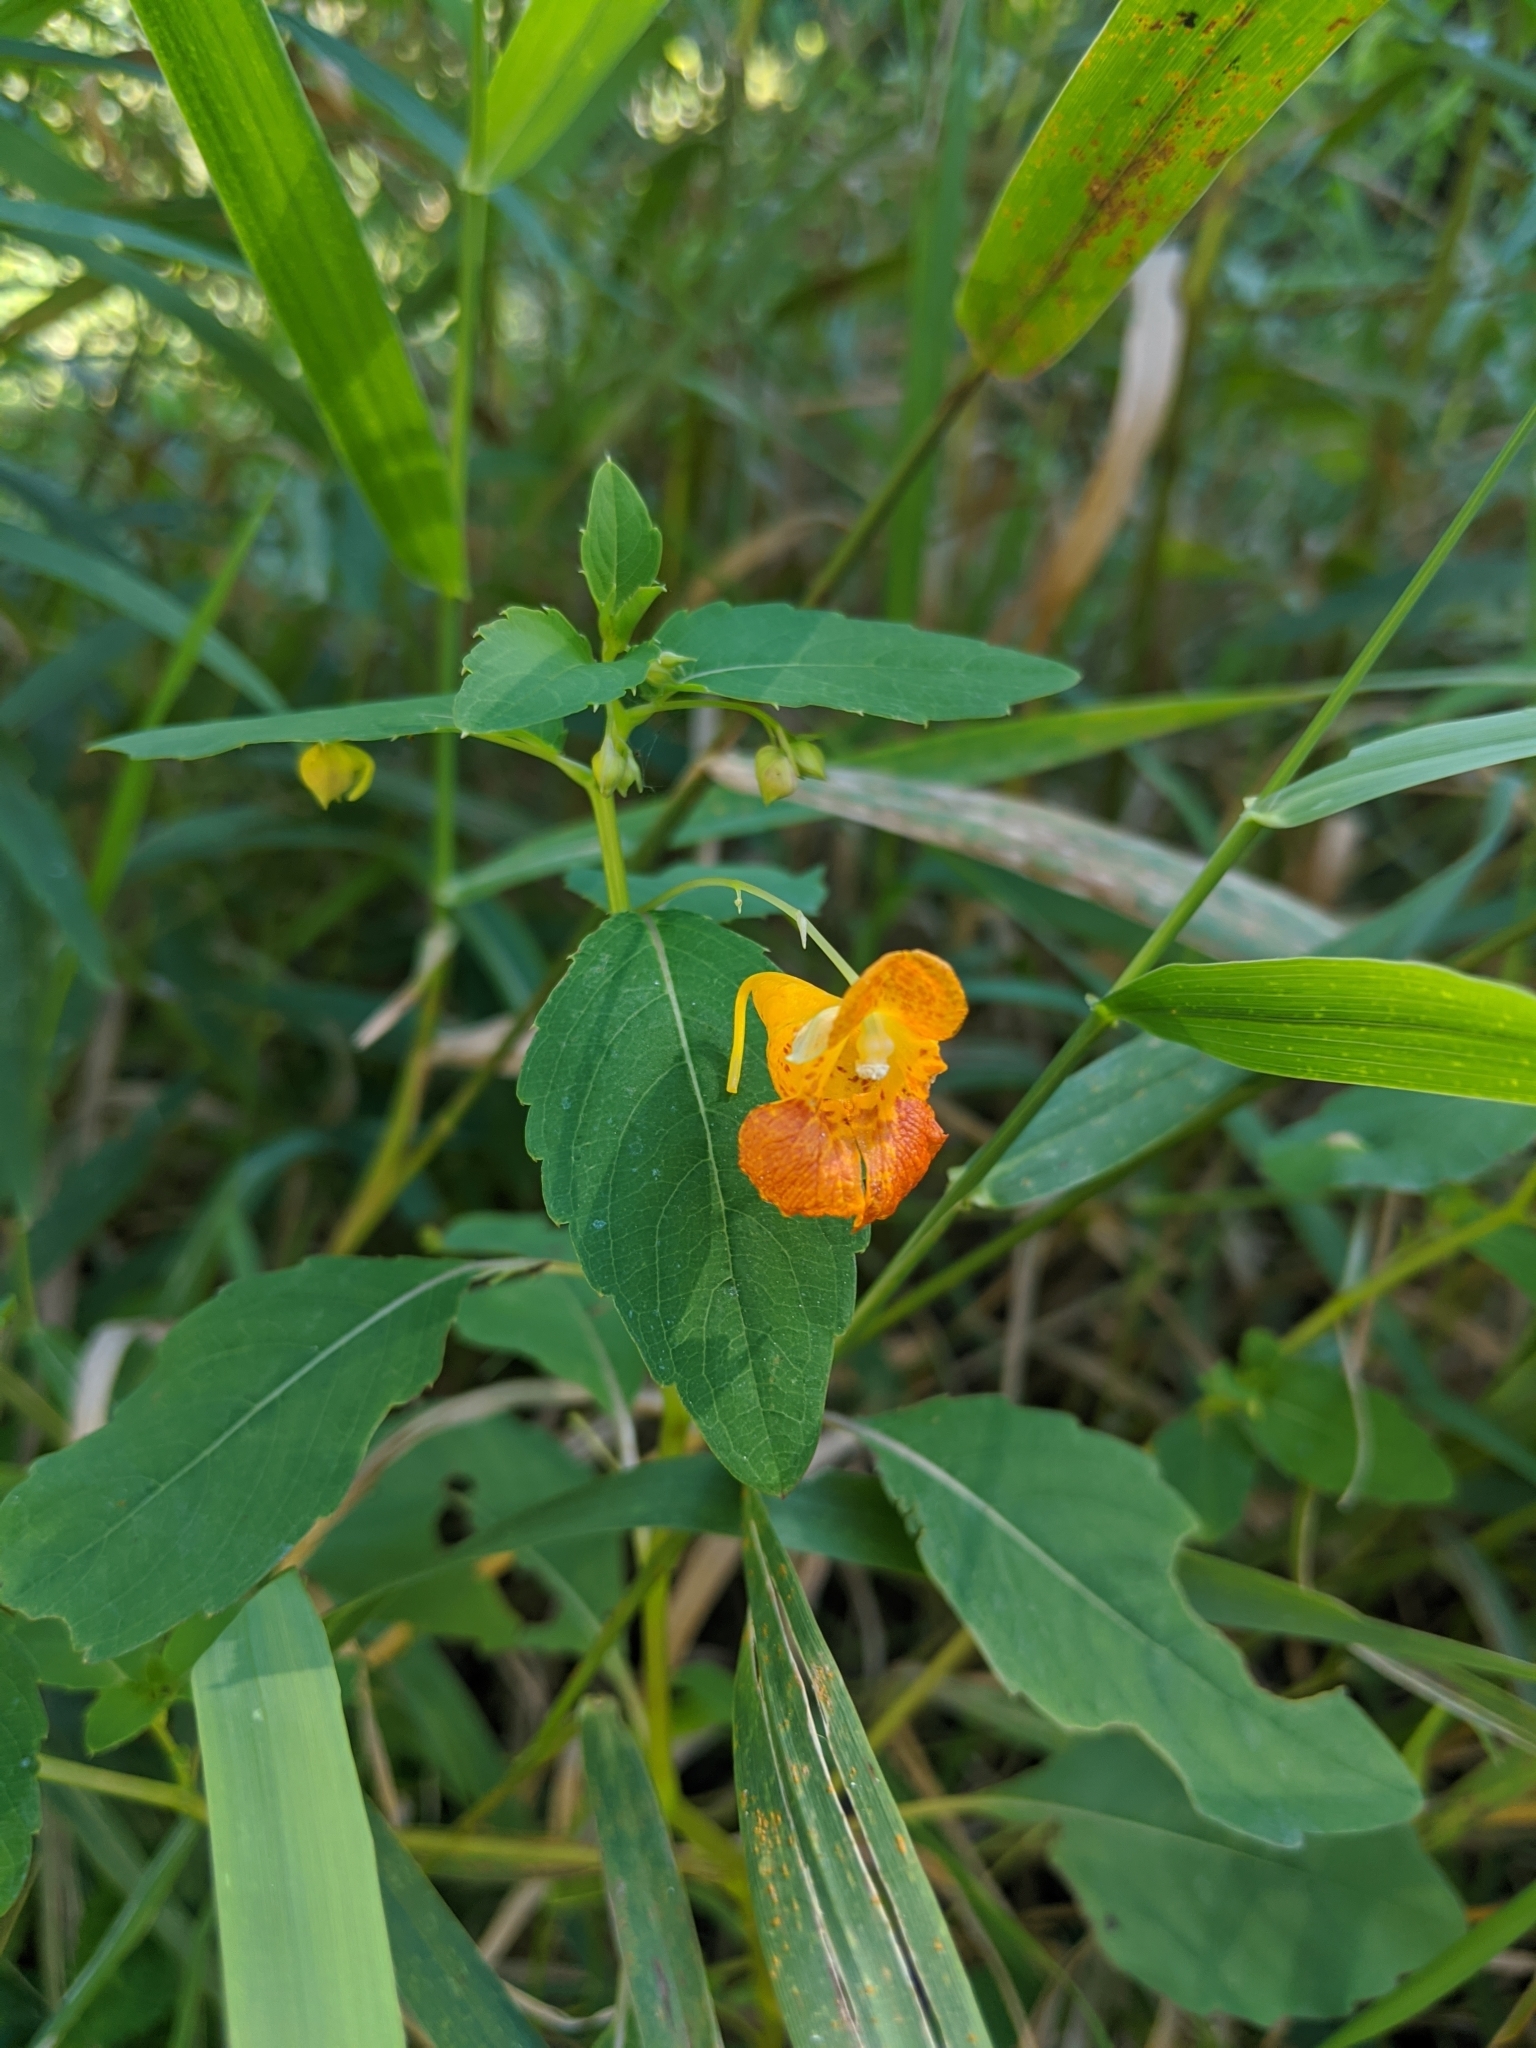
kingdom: Plantae
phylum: Tracheophyta
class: Magnoliopsida
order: Ericales
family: Balsaminaceae
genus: Impatiens
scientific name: Impatiens capensis
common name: Orange balsam
